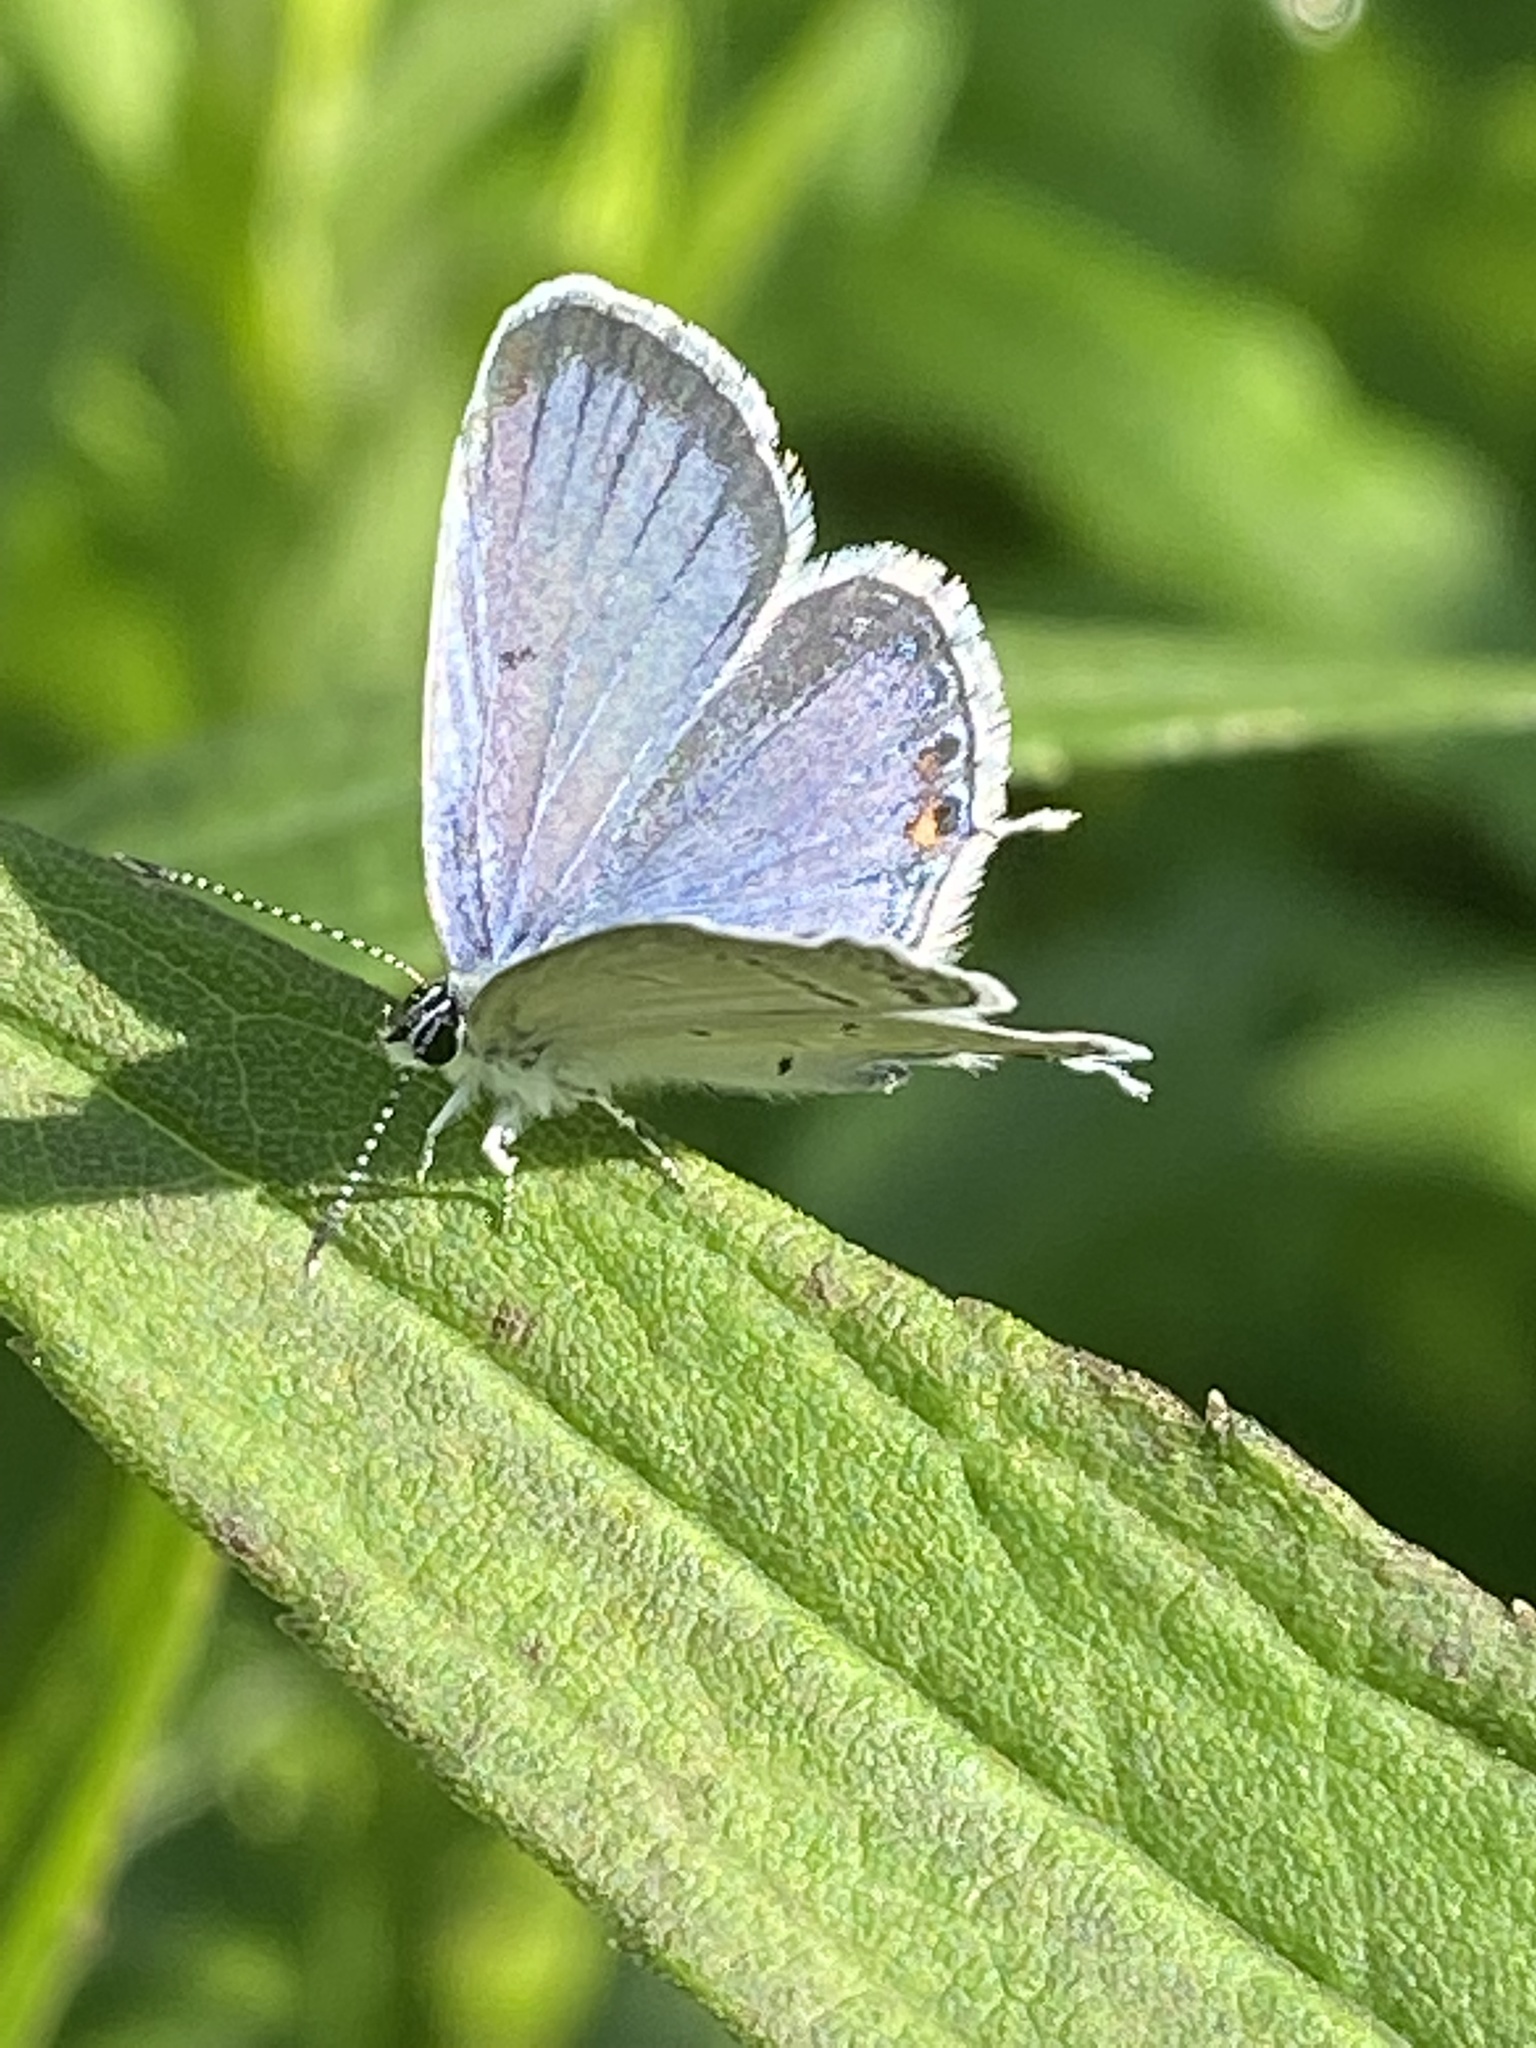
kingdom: Animalia
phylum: Arthropoda
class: Insecta
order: Lepidoptera
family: Lycaenidae
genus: Elkalyce
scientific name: Elkalyce comyntas
